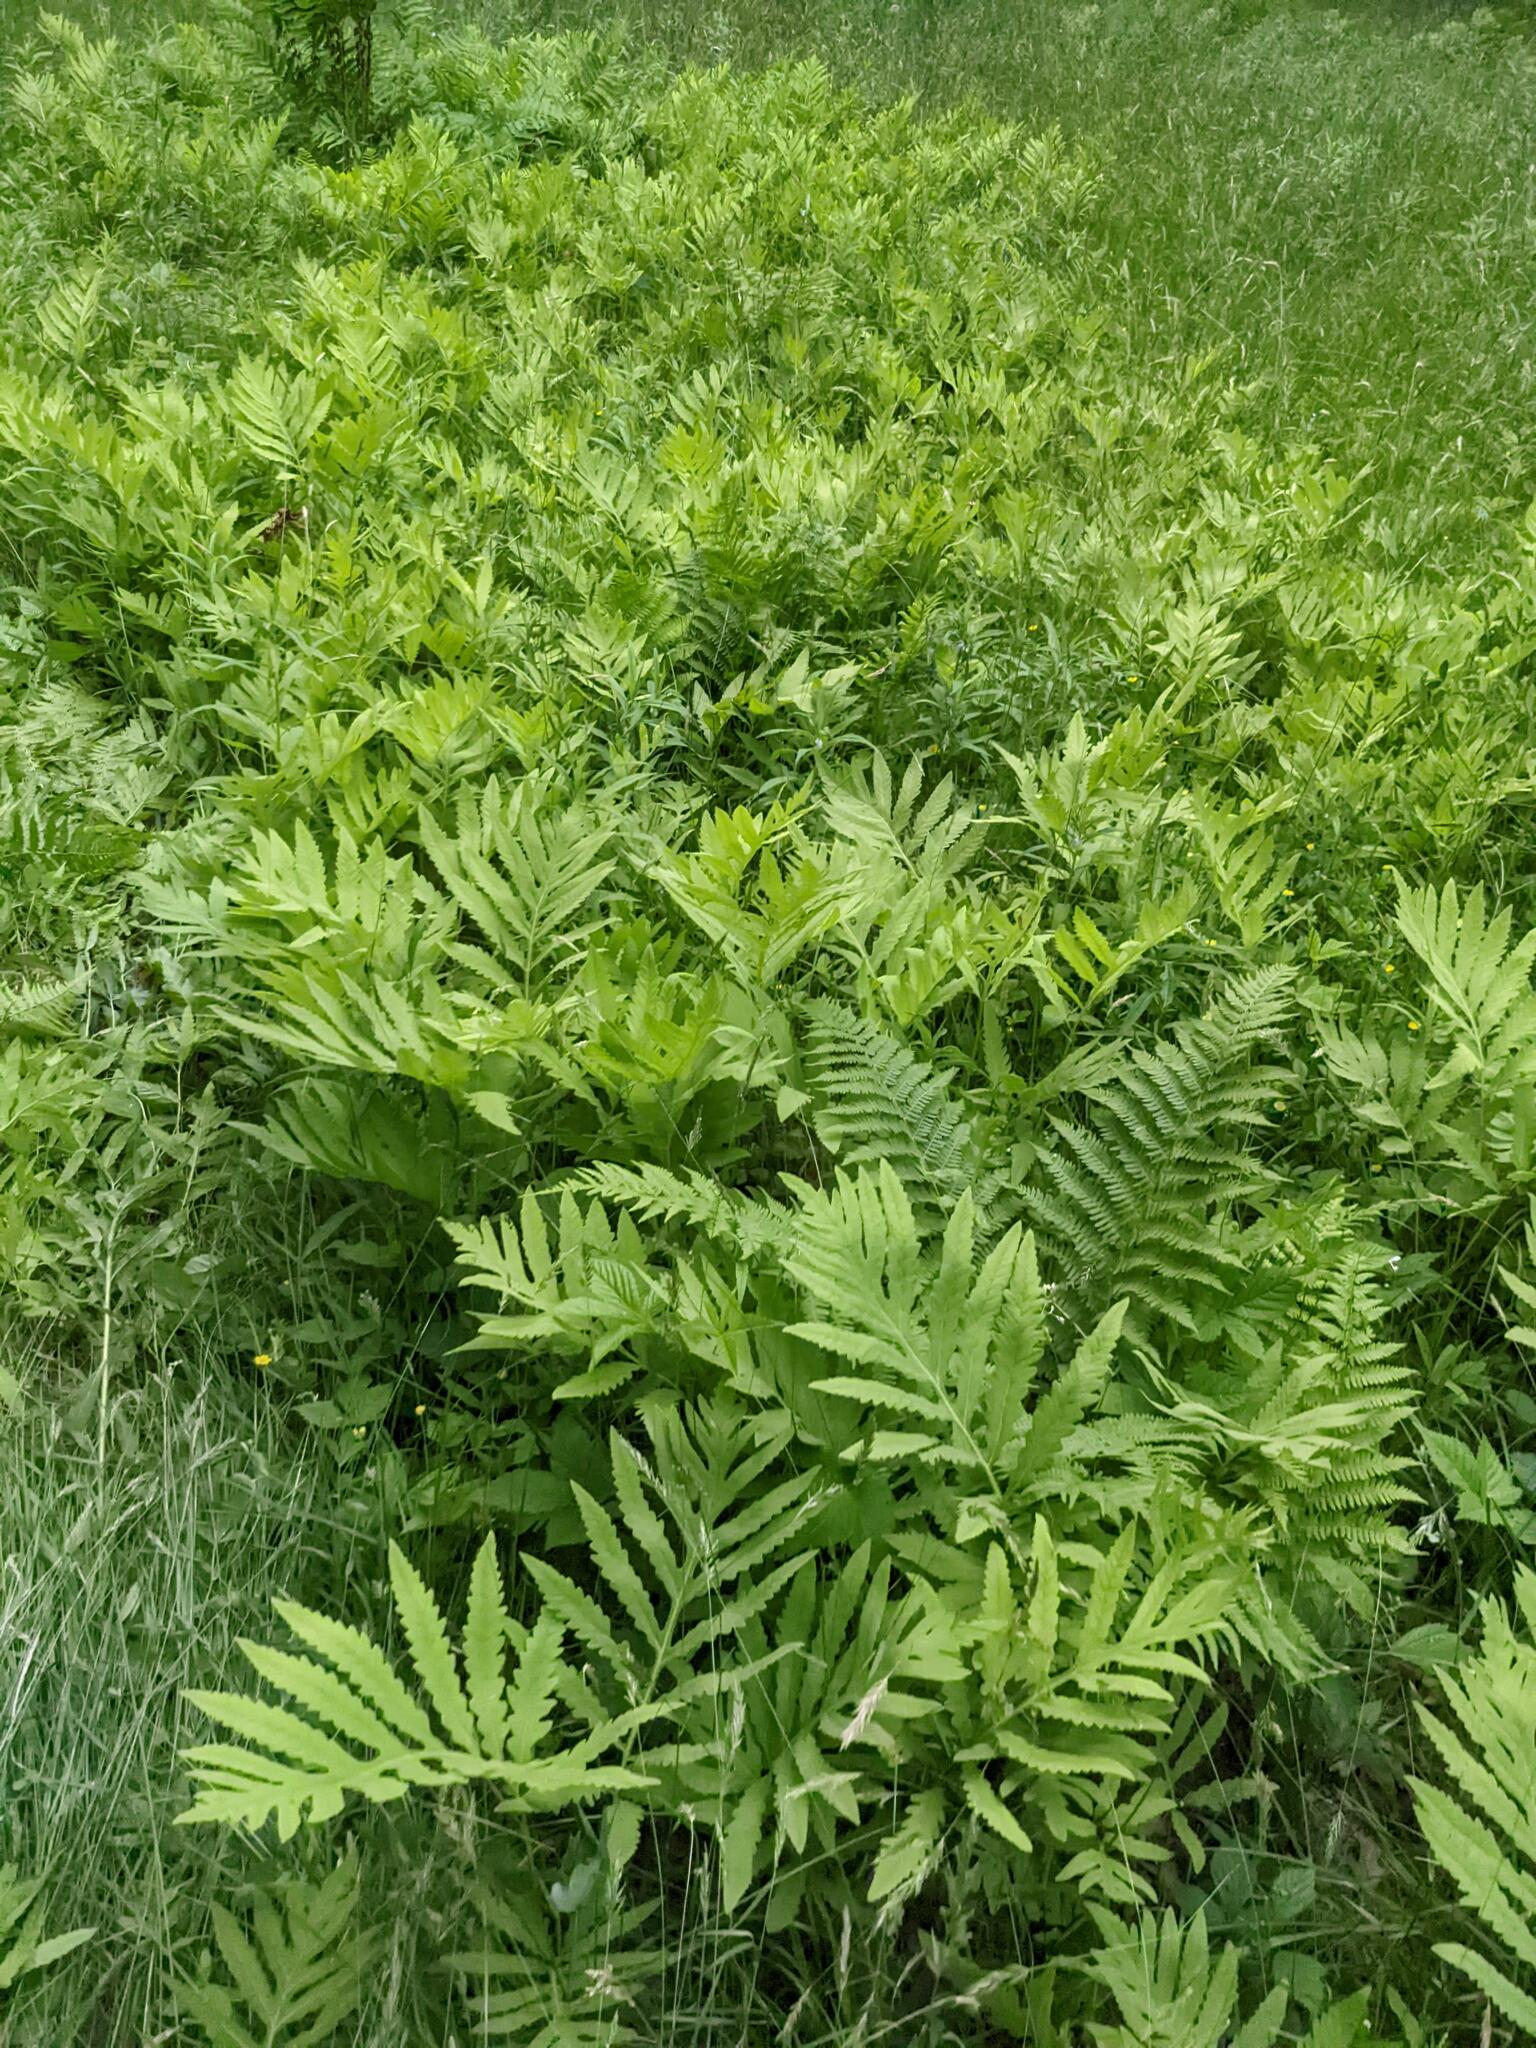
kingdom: Plantae
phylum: Tracheophyta
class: Polypodiopsida
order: Polypodiales
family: Onocleaceae
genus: Onoclea
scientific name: Onoclea sensibilis
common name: Sensitive fern
